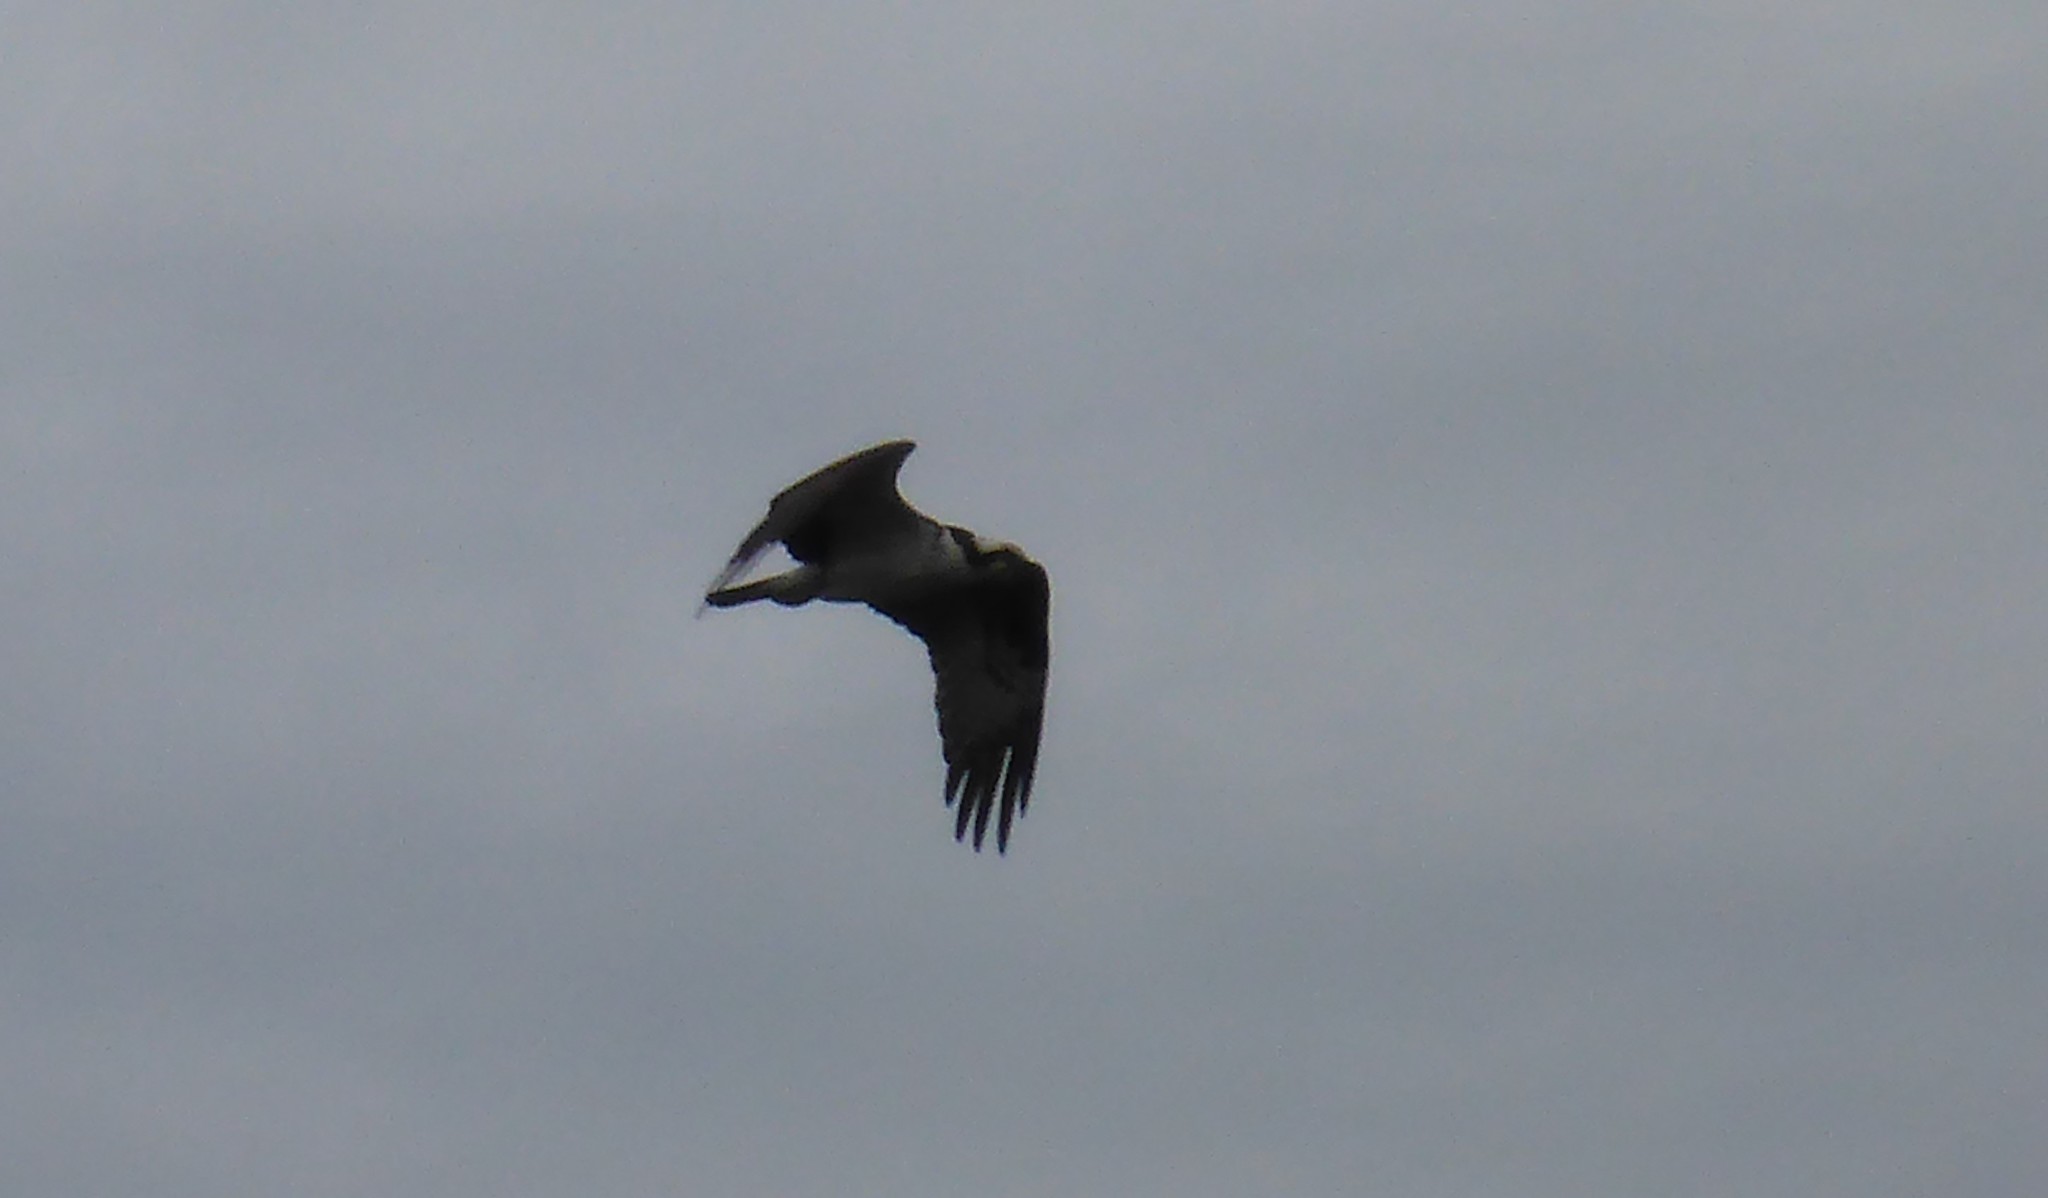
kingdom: Animalia
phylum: Chordata
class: Aves
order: Accipitriformes
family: Pandionidae
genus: Pandion
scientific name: Pandion haliaetus
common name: Osprey
